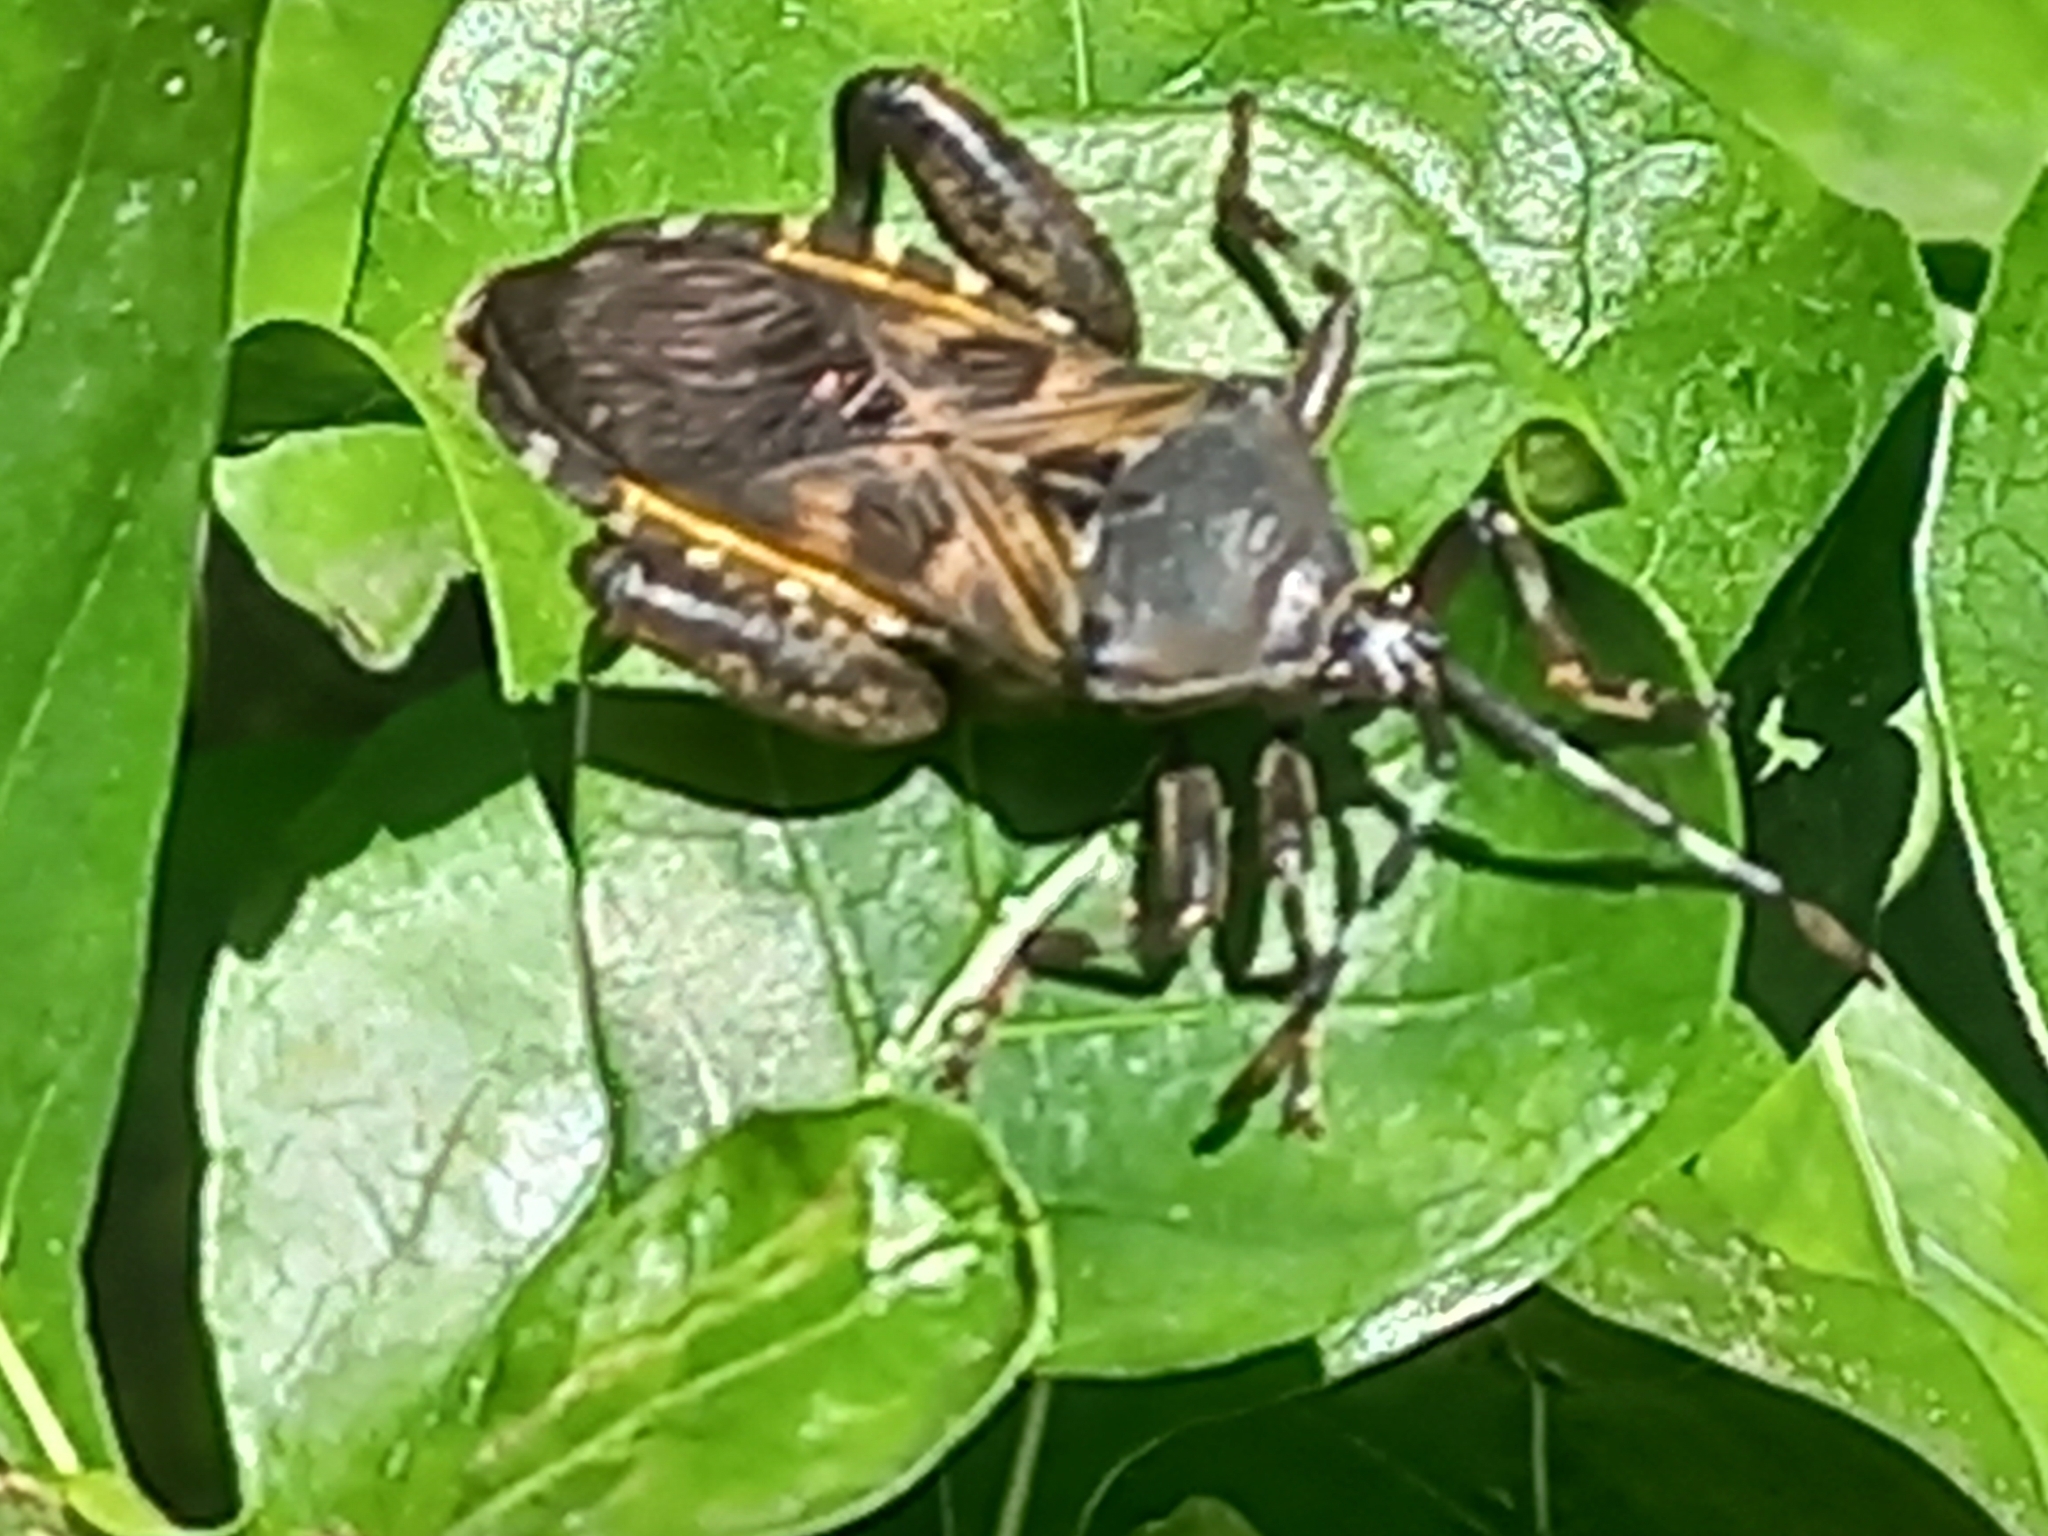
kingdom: Animalia
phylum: Arthropoda
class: Insecta
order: Hemiptera
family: Coreidae
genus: Carlisis
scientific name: Carlisis wahlbergi
